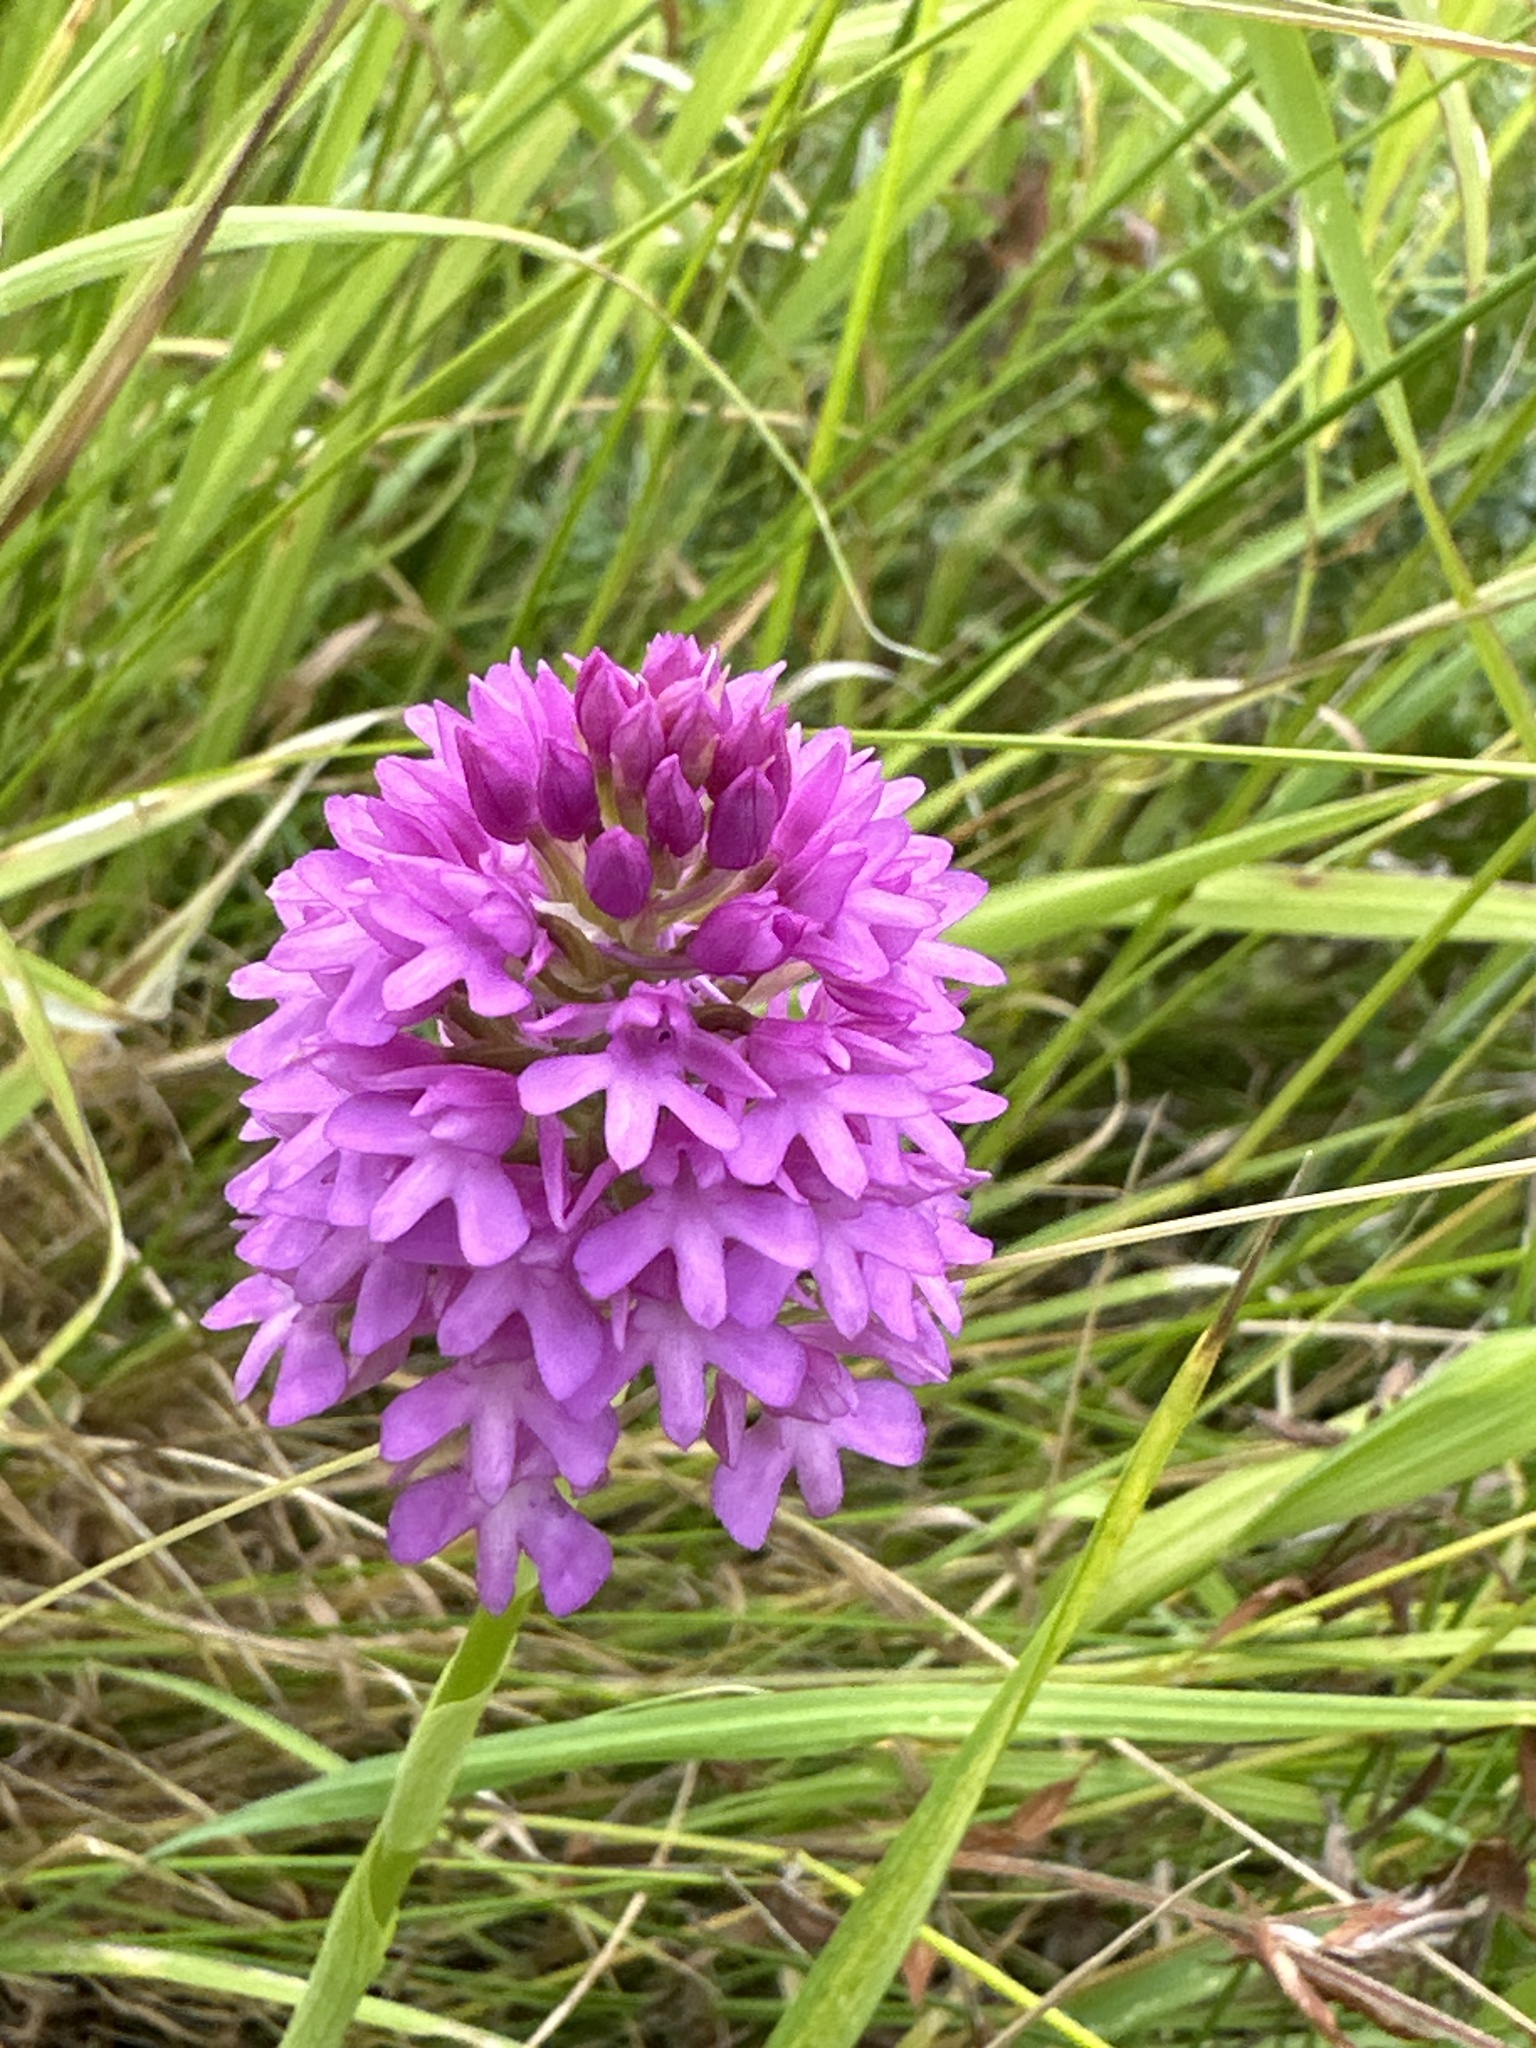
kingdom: Plantae
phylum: Tracheophyta
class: Liliopsida
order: Asparagales
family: Orchidaceae
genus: Anacamptis
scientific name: Anacamptis pyramidalis
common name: Pyramidal orchid
